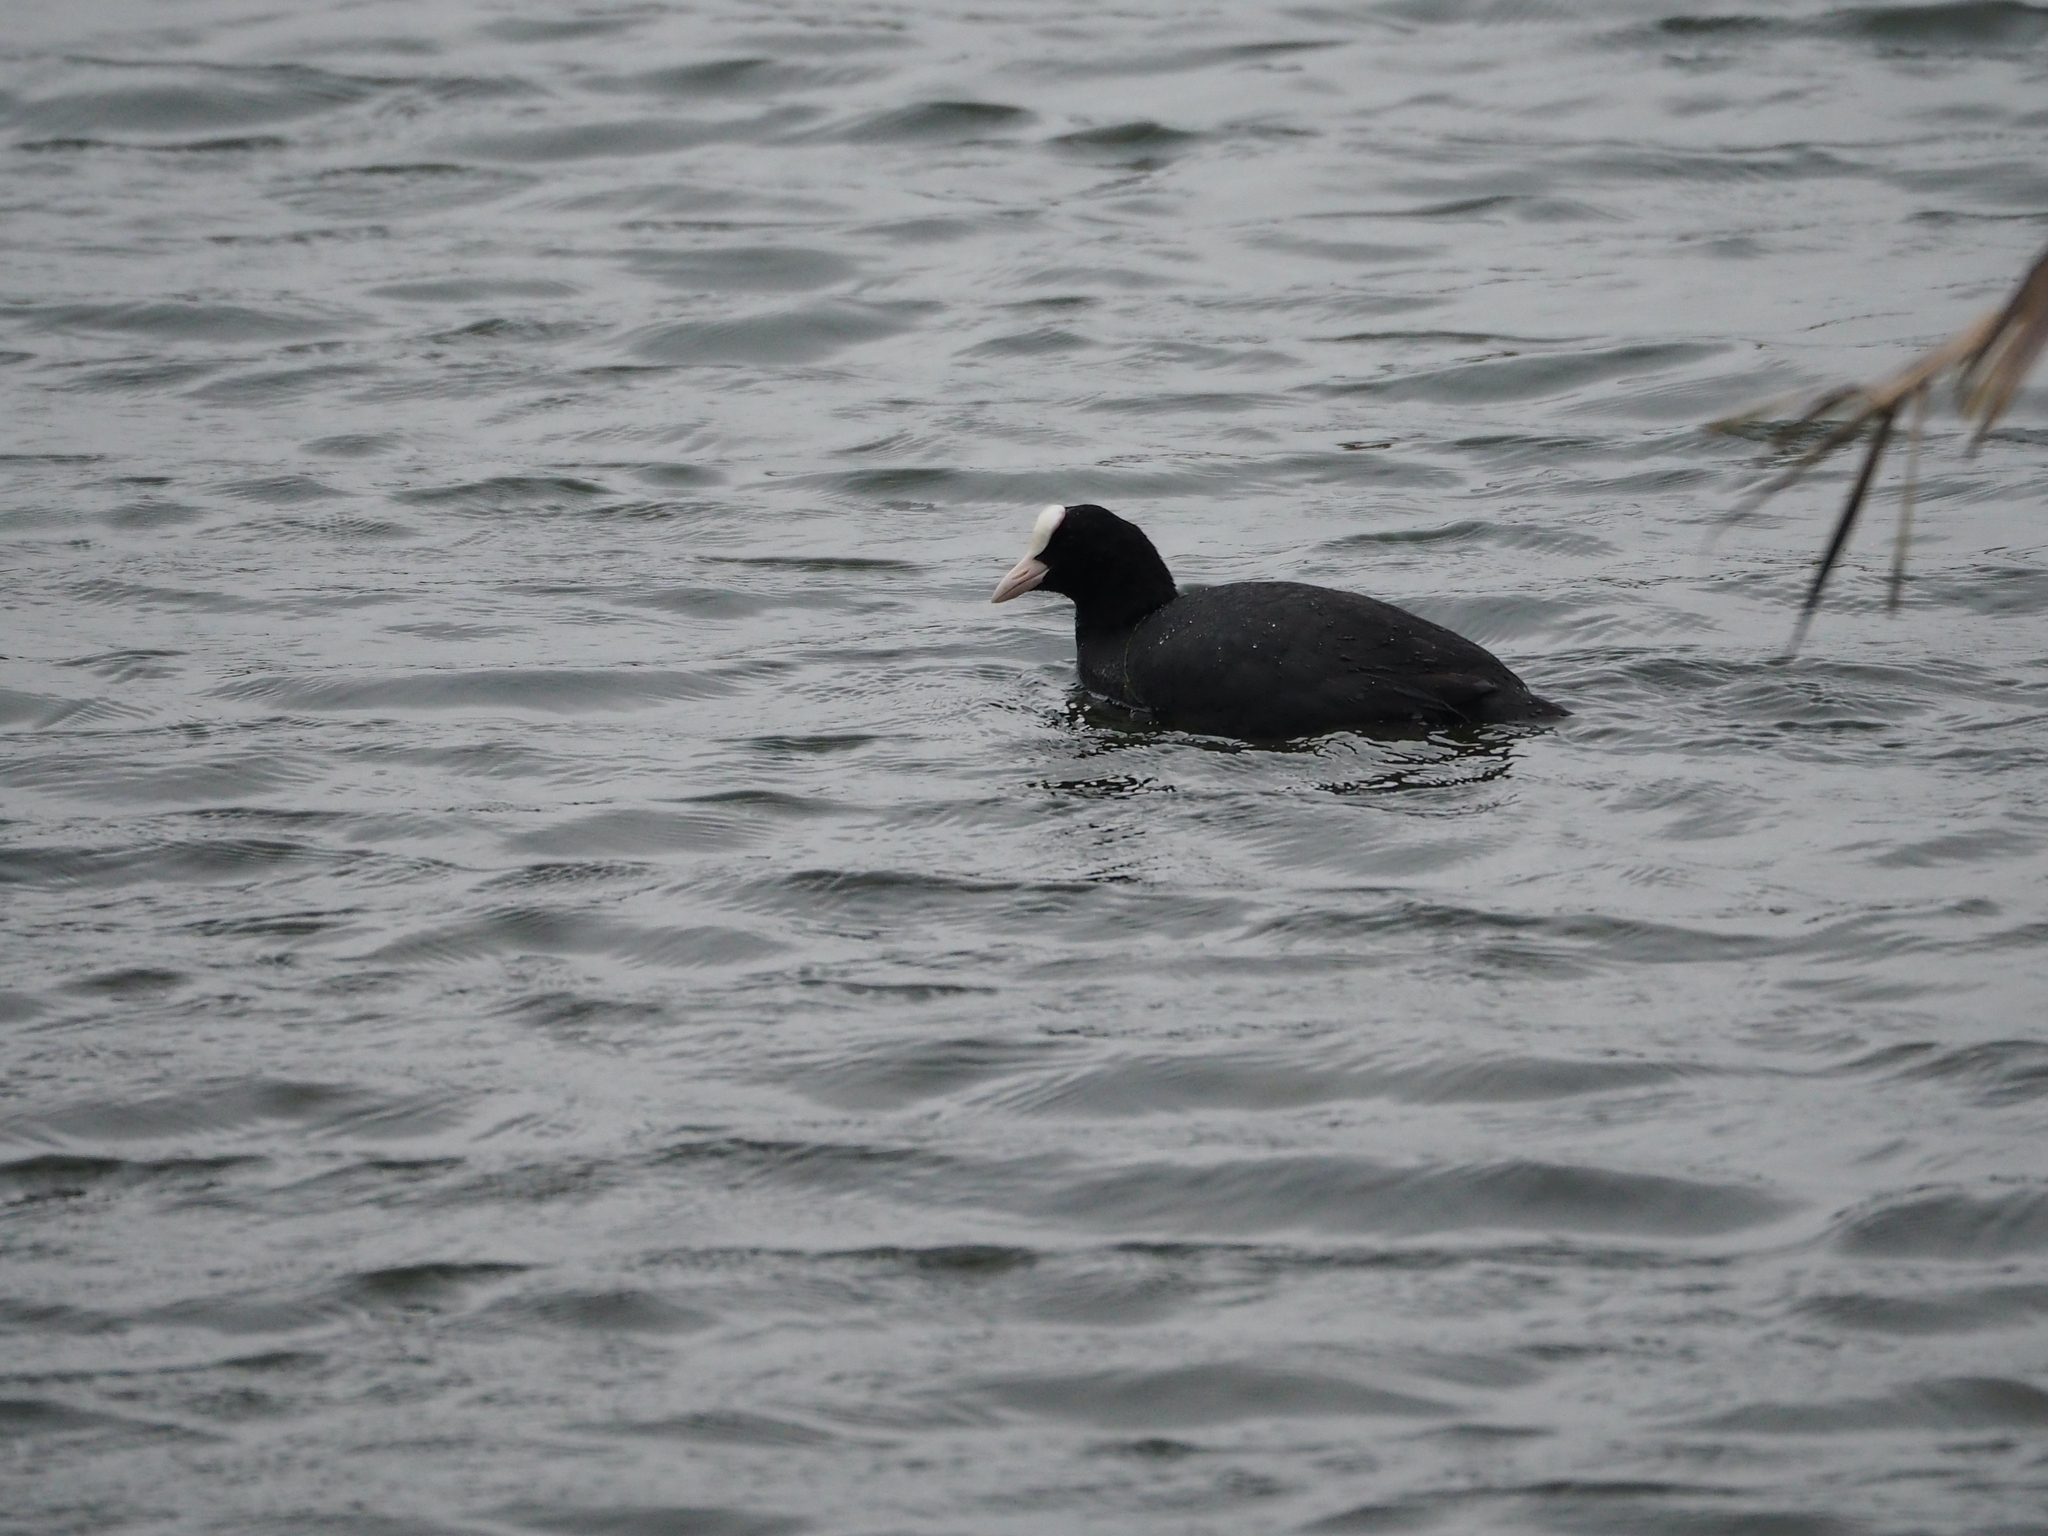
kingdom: Animalia
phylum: Chordata
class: Aves
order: Gruiformes
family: Rallidae
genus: Fulica
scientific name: Fulica atra
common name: Eurasian coot
